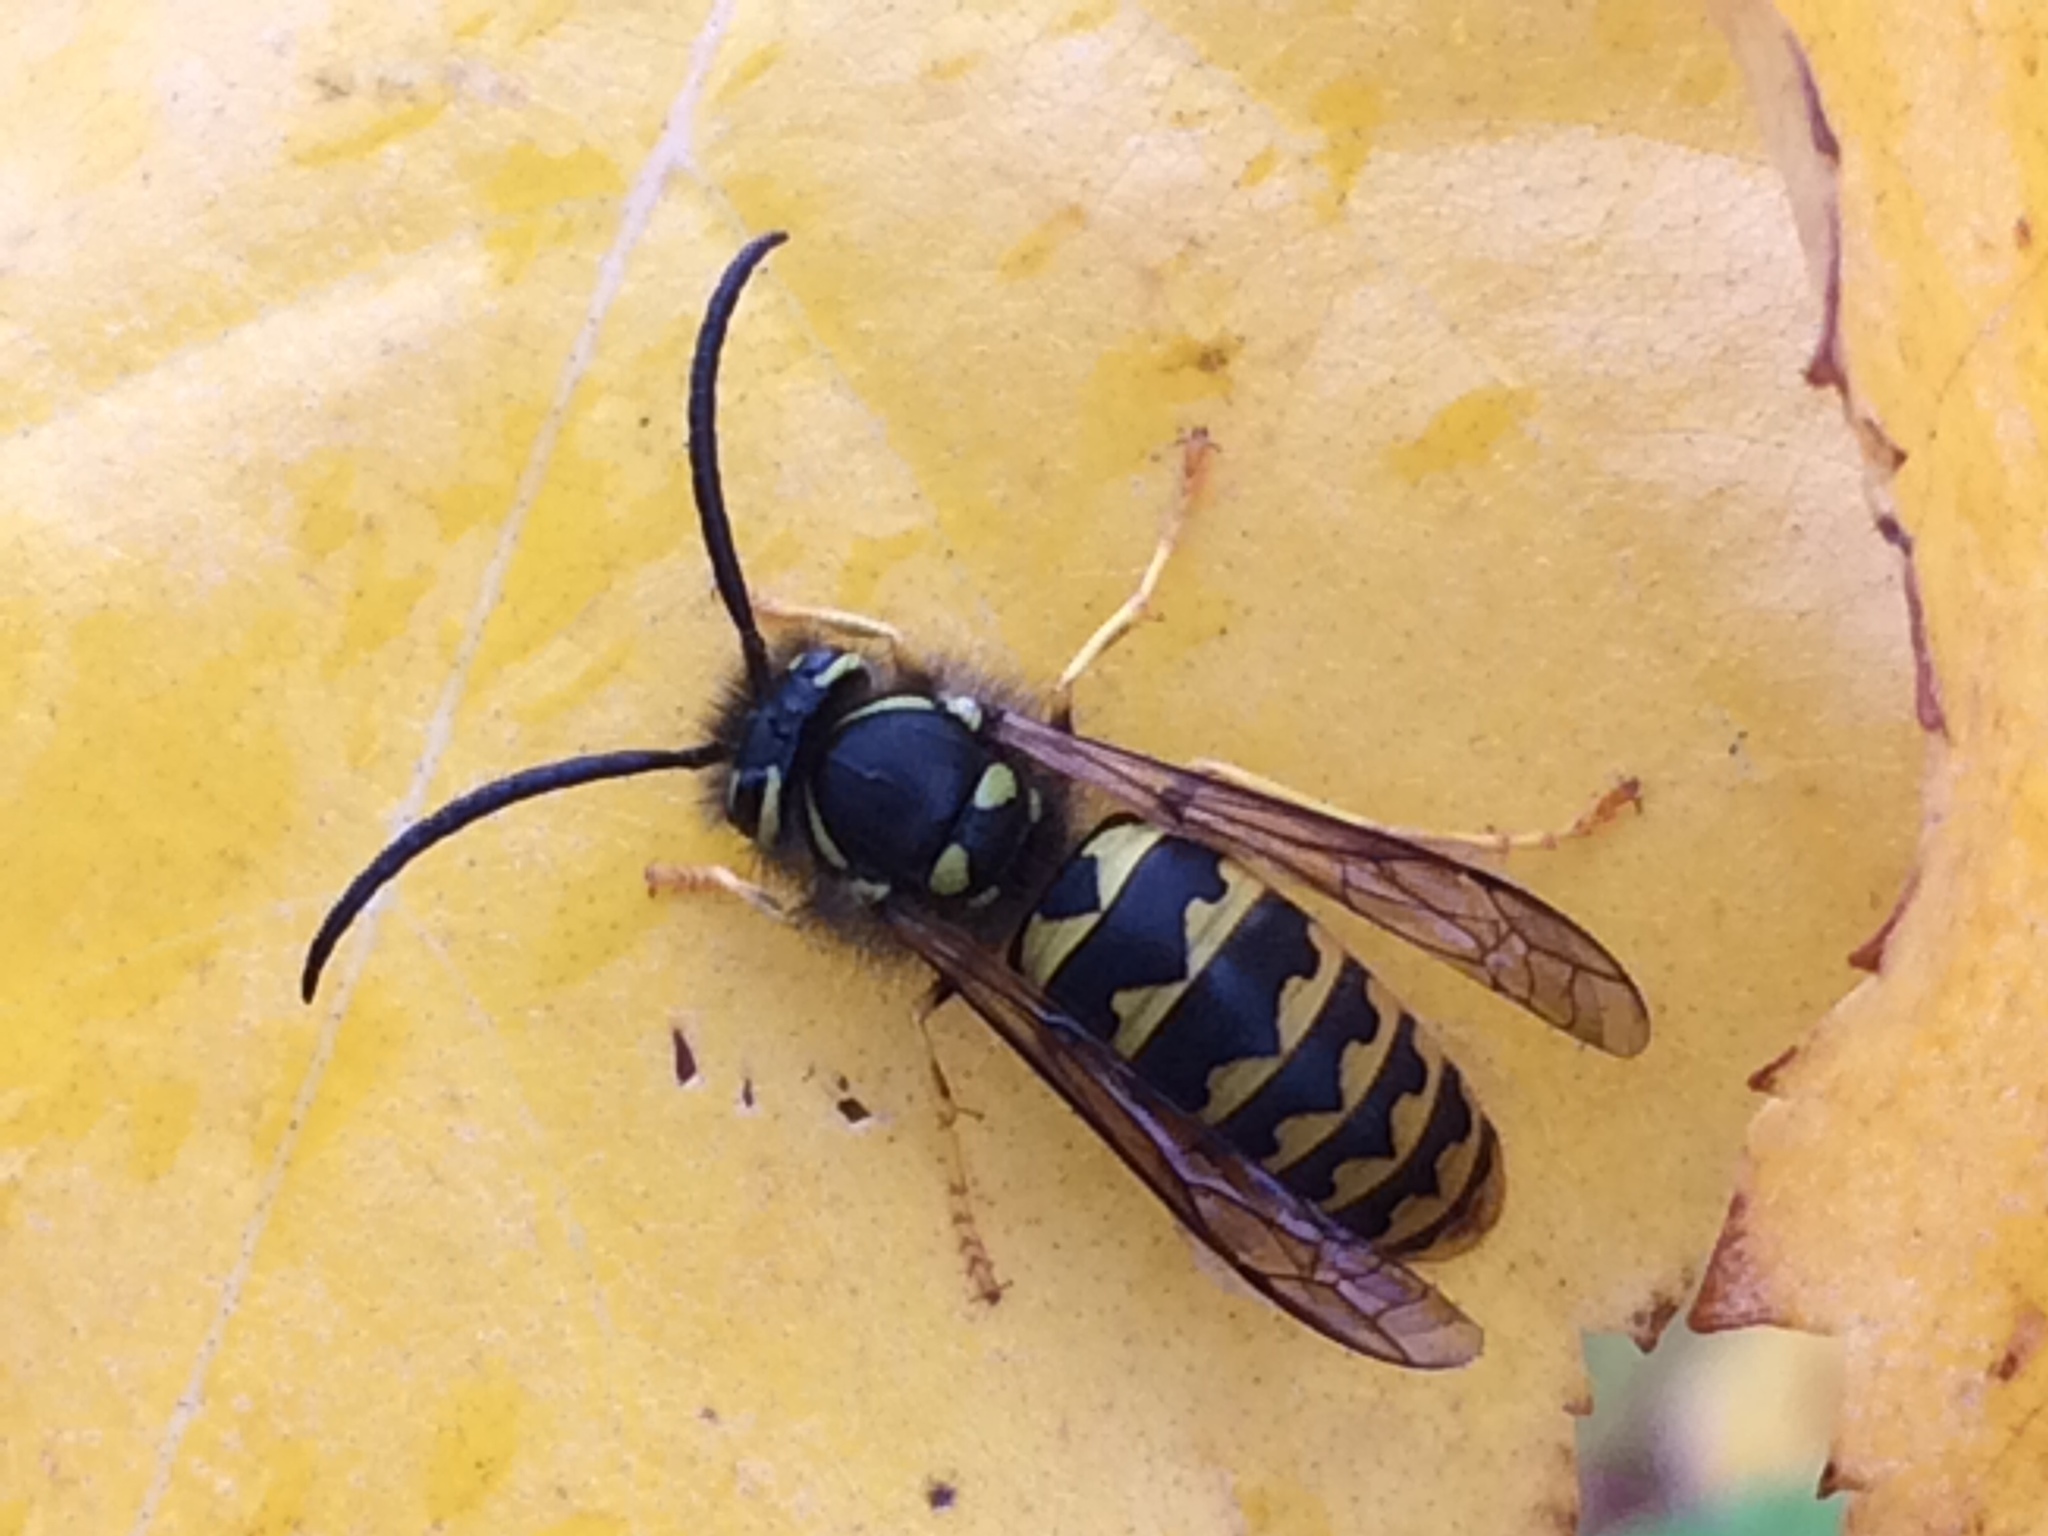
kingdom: Animalia
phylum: Arthropoda
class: Insecta
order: Hymenoptera
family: Vespidae
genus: Vespula
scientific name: Vespula pensylvanica
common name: Western yellowjacket
